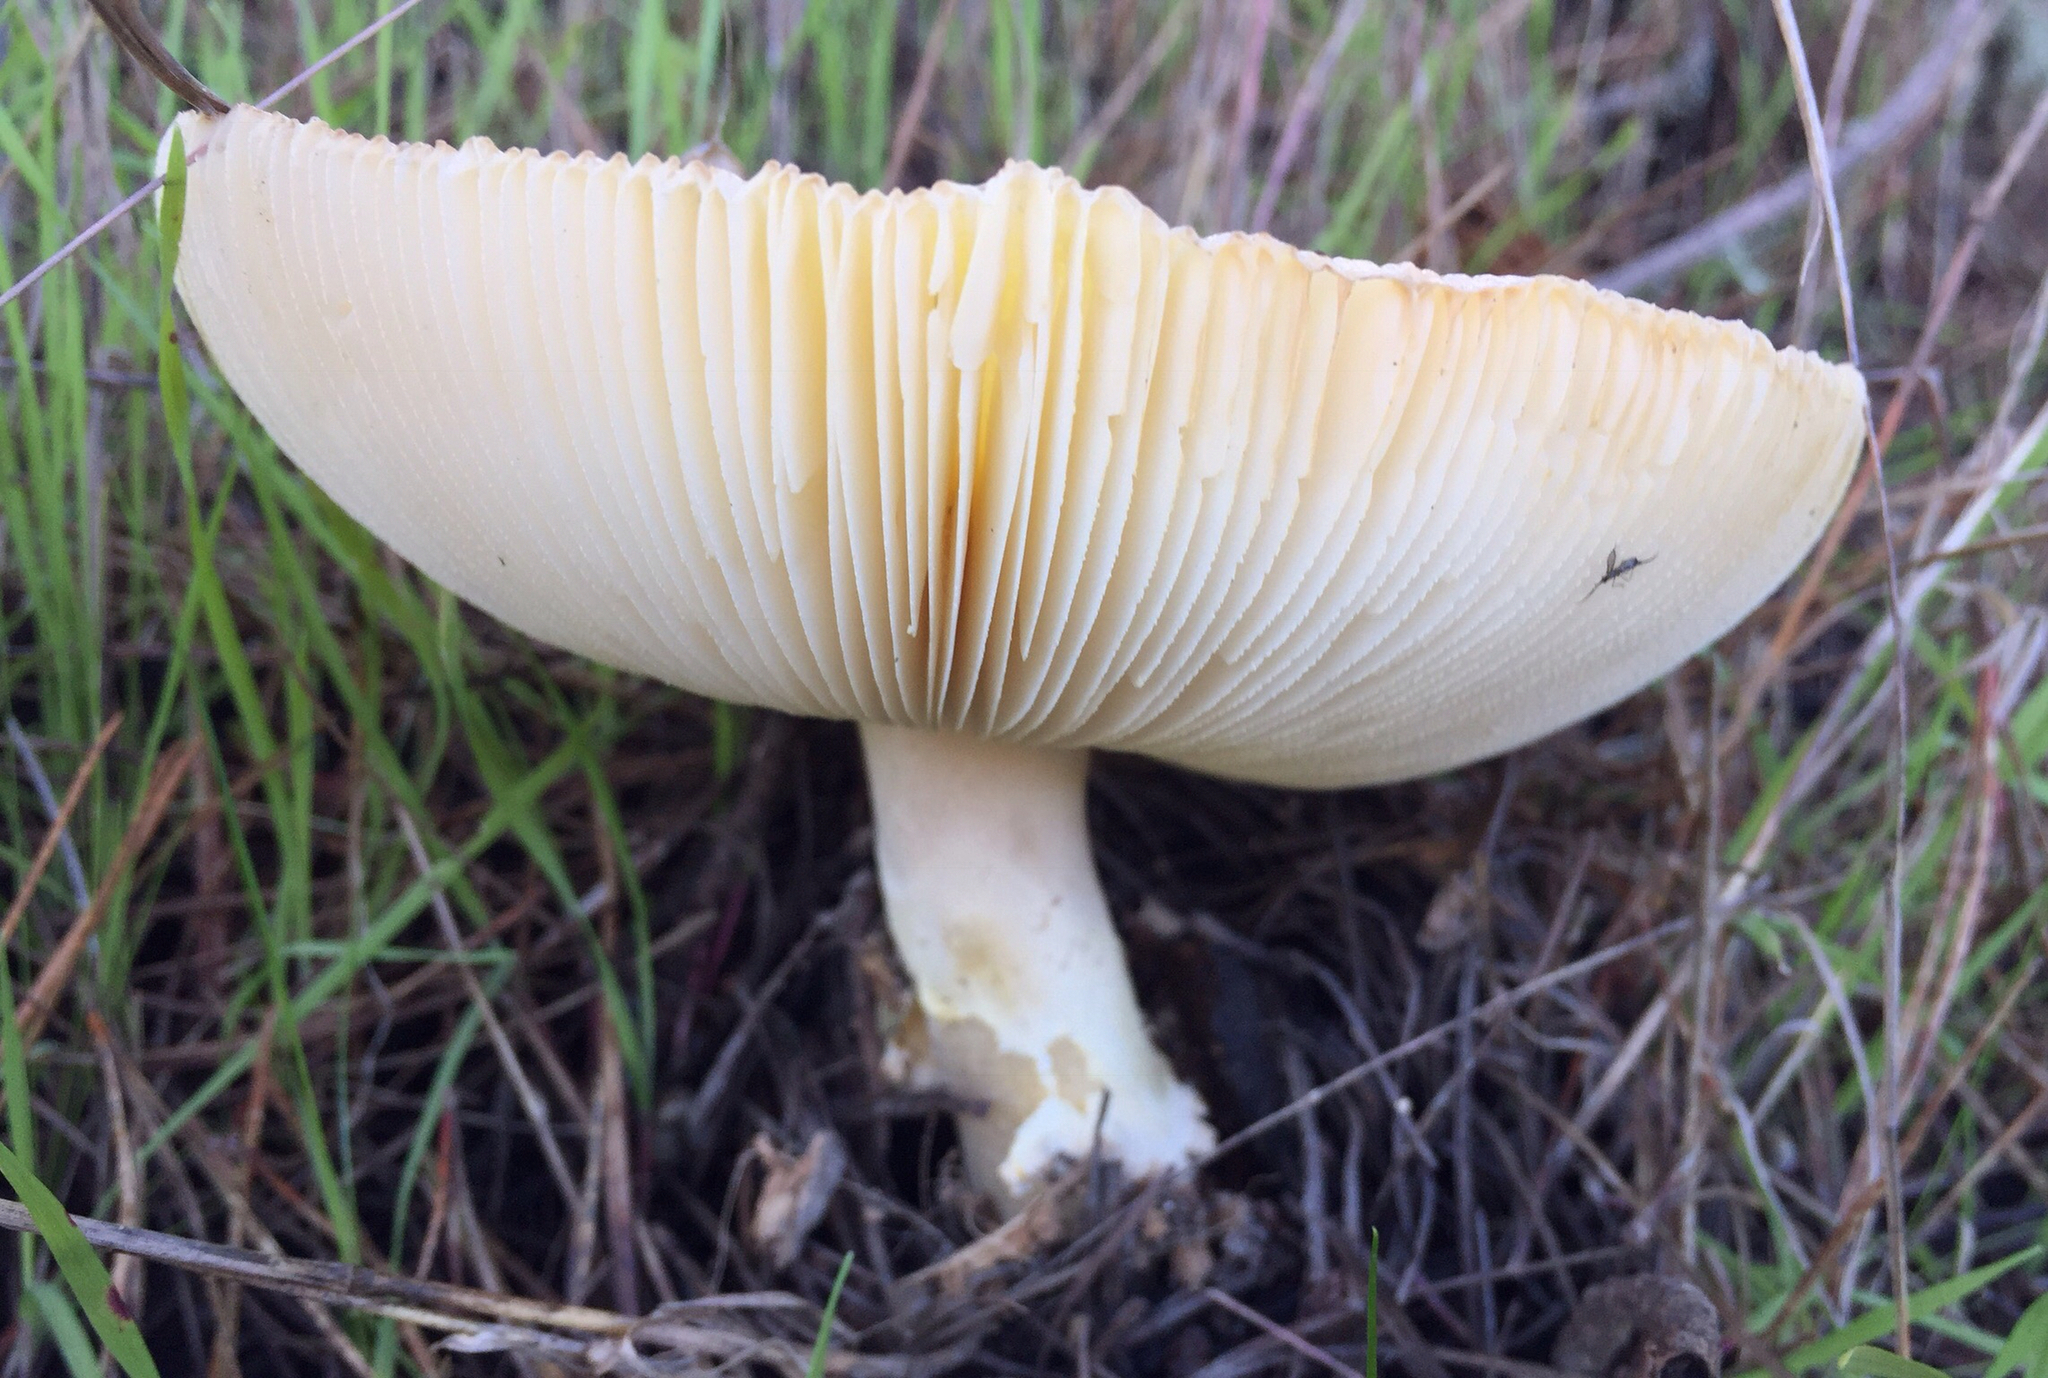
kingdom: Fungi
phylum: Basidiomycota
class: Agaricomycetes
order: Agaricales
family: Amanitaceae
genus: Amanita
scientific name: Amanita muscaria
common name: Fly agaric
